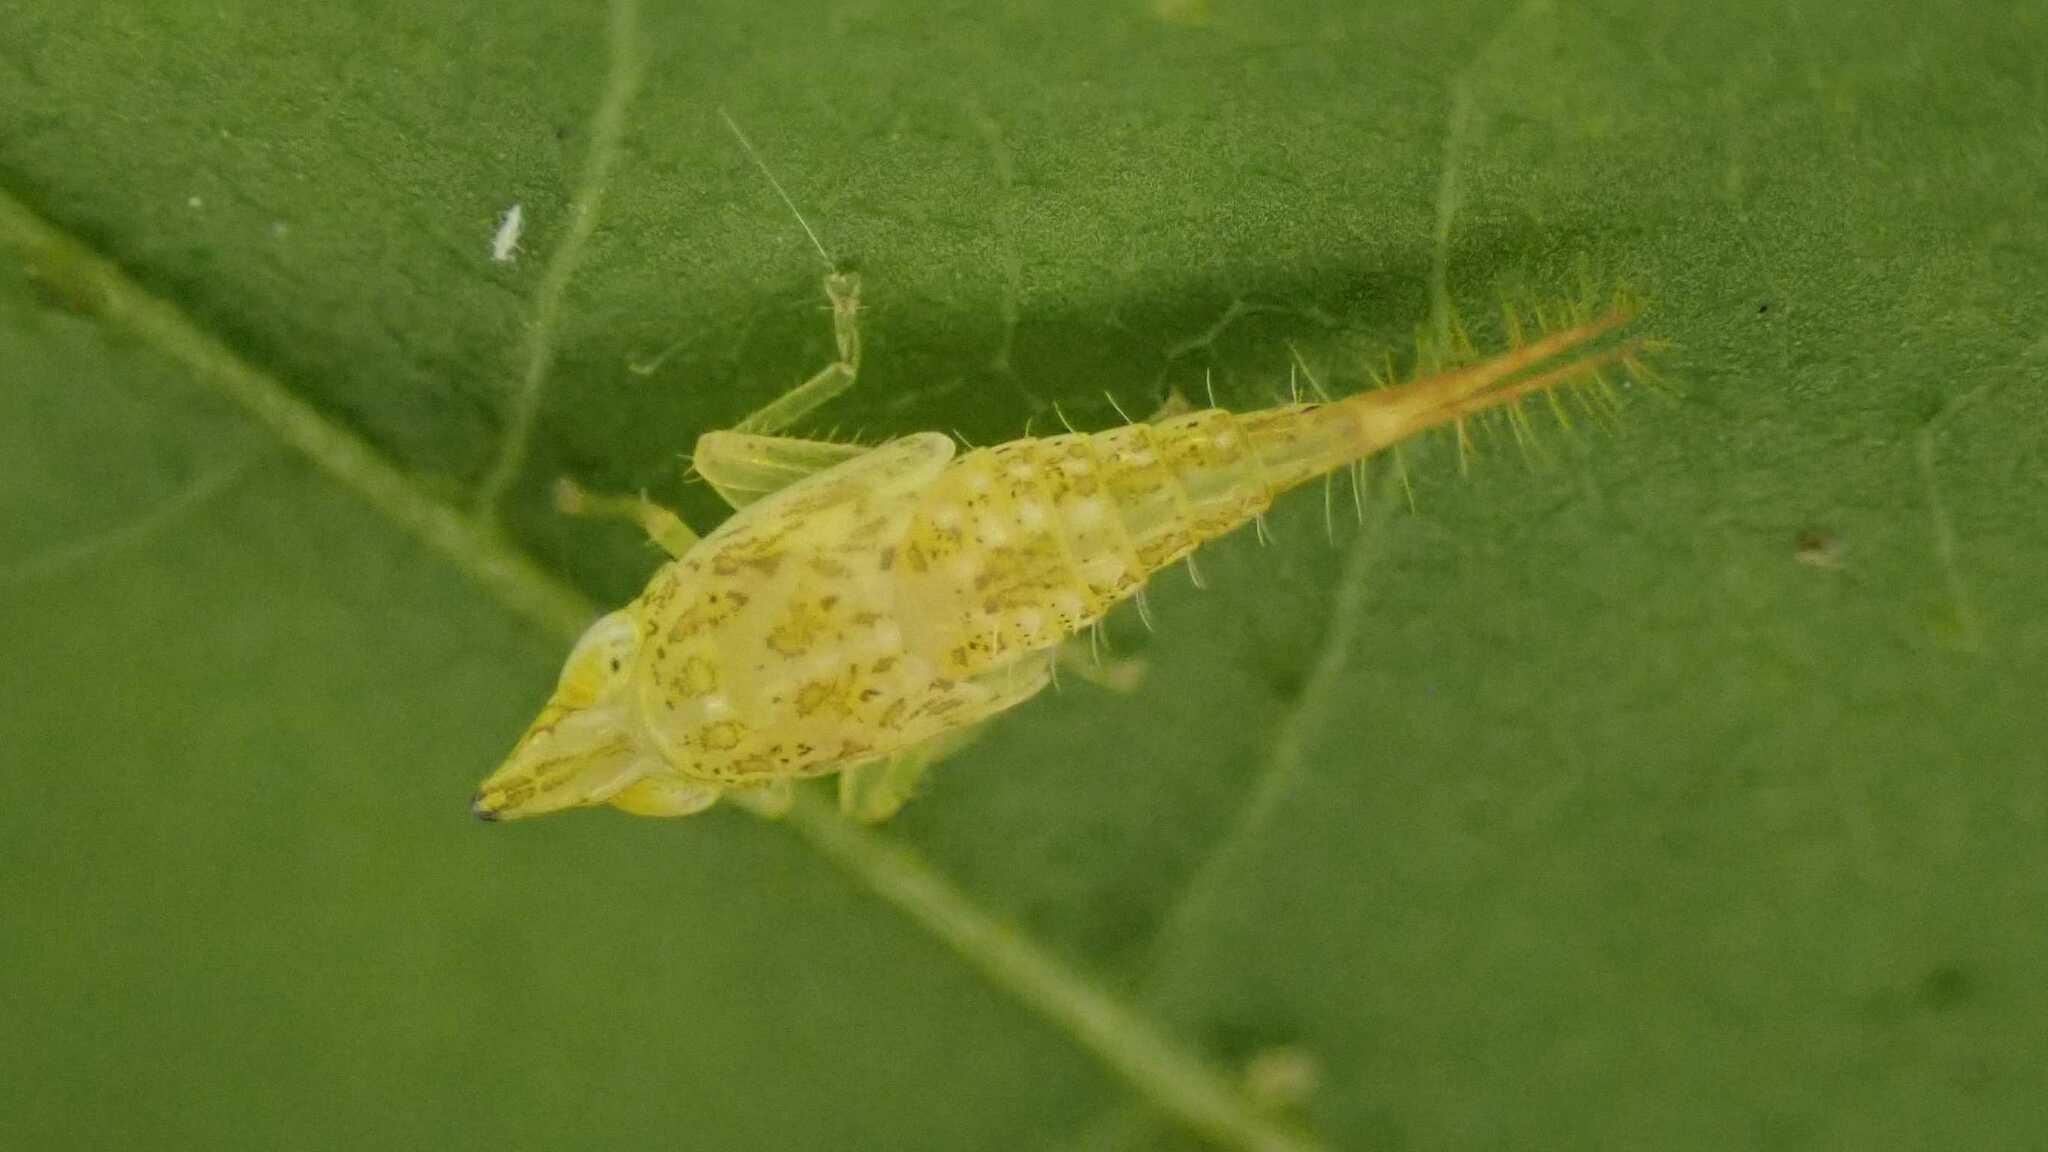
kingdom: Animalia
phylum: Arthropoda
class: Insecta
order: Hemiptera
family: Cicadellidae
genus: Japananus
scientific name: Japananus hyalinus
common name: The japanese maple leafhopper
